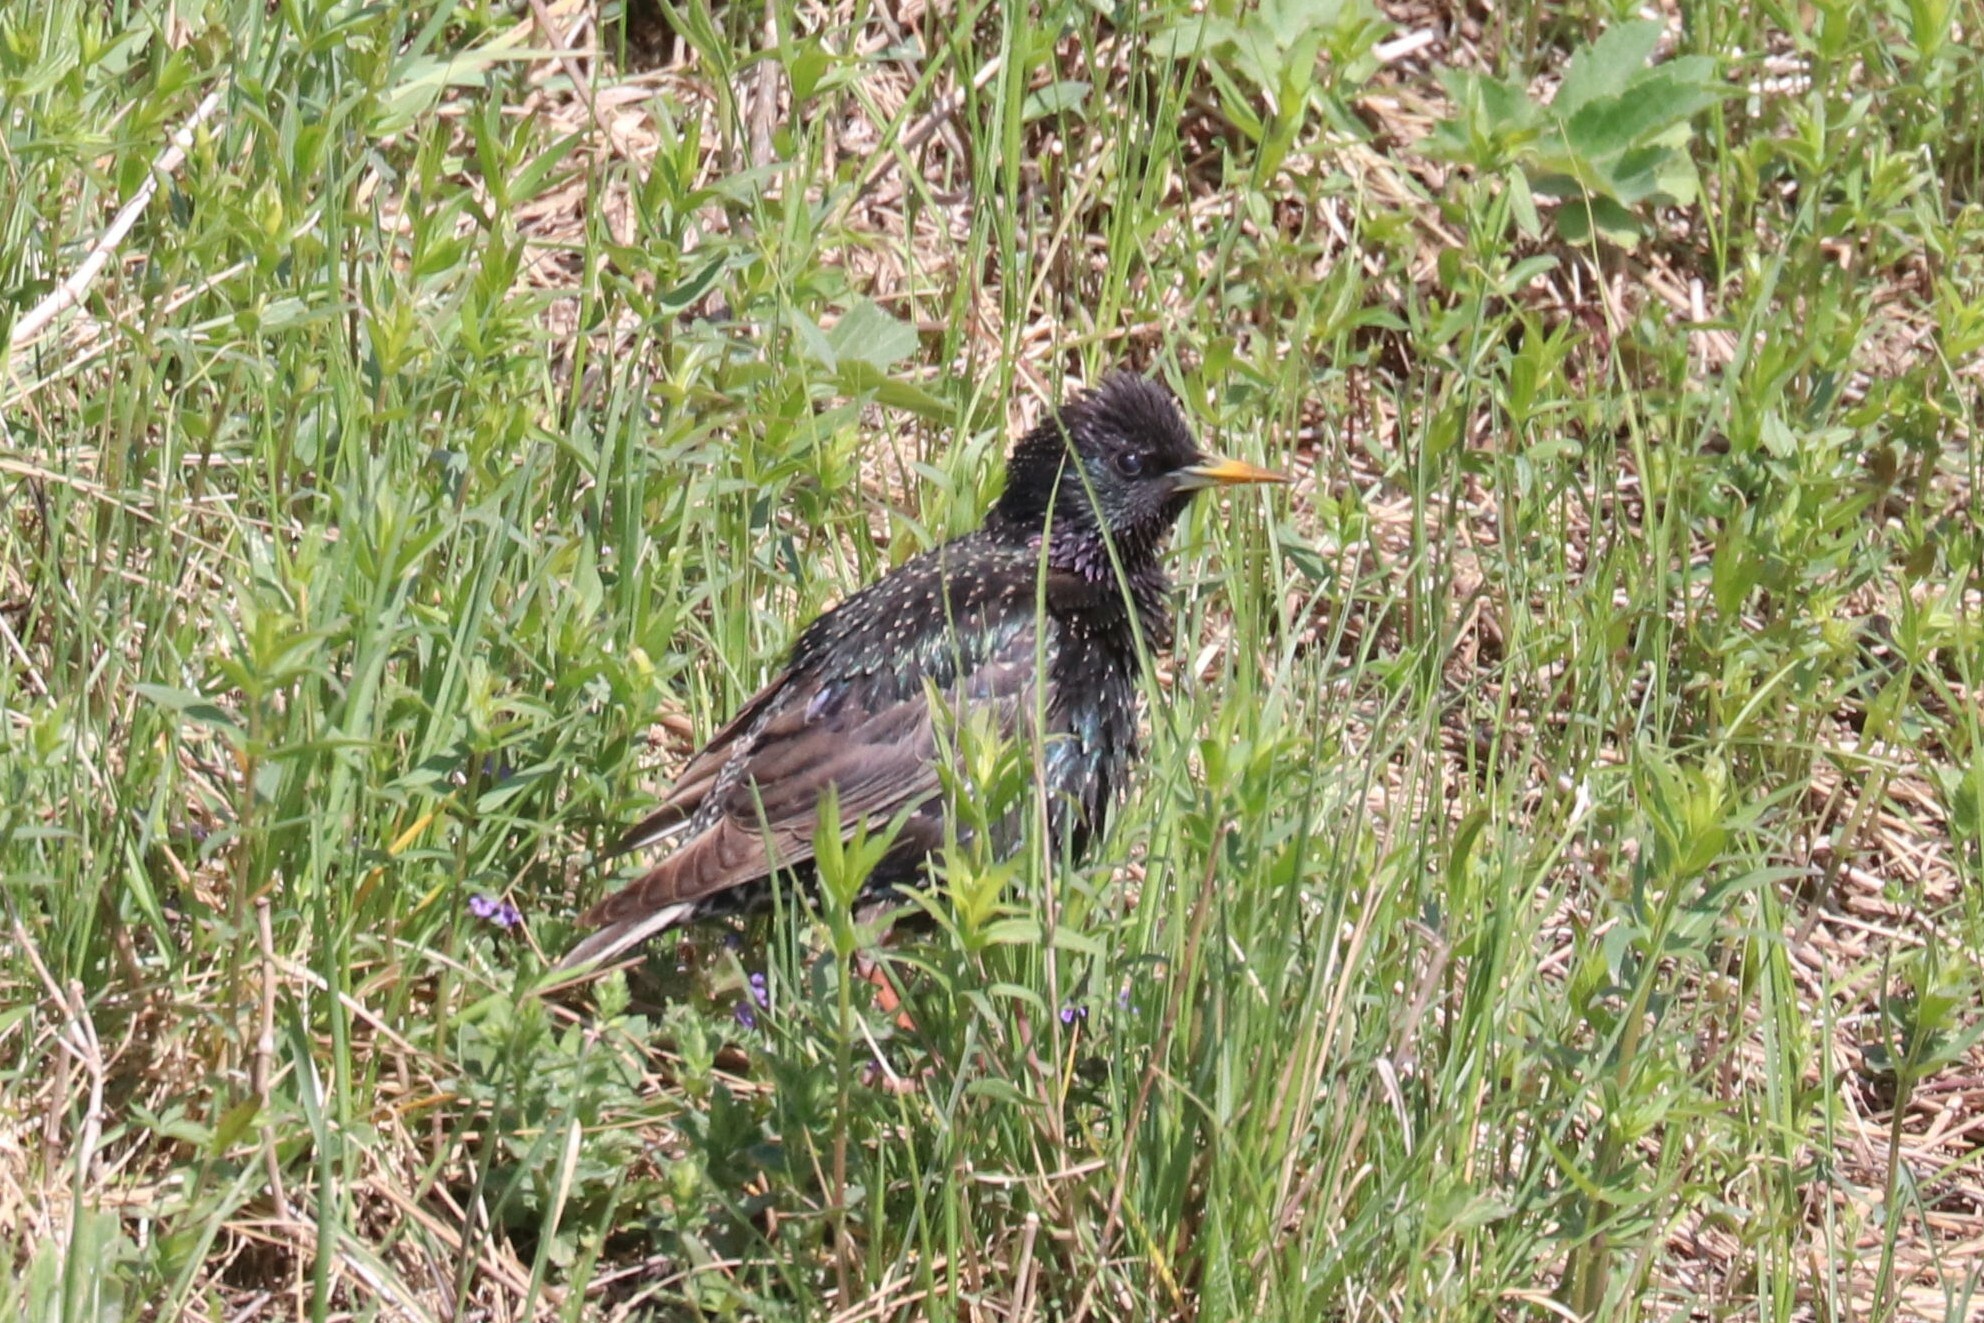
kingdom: Animalia
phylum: Chordata
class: Aves
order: Passeriformes
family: Sturnidae
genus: Sturnus
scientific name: Sturnus vulgaris
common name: Common starling
